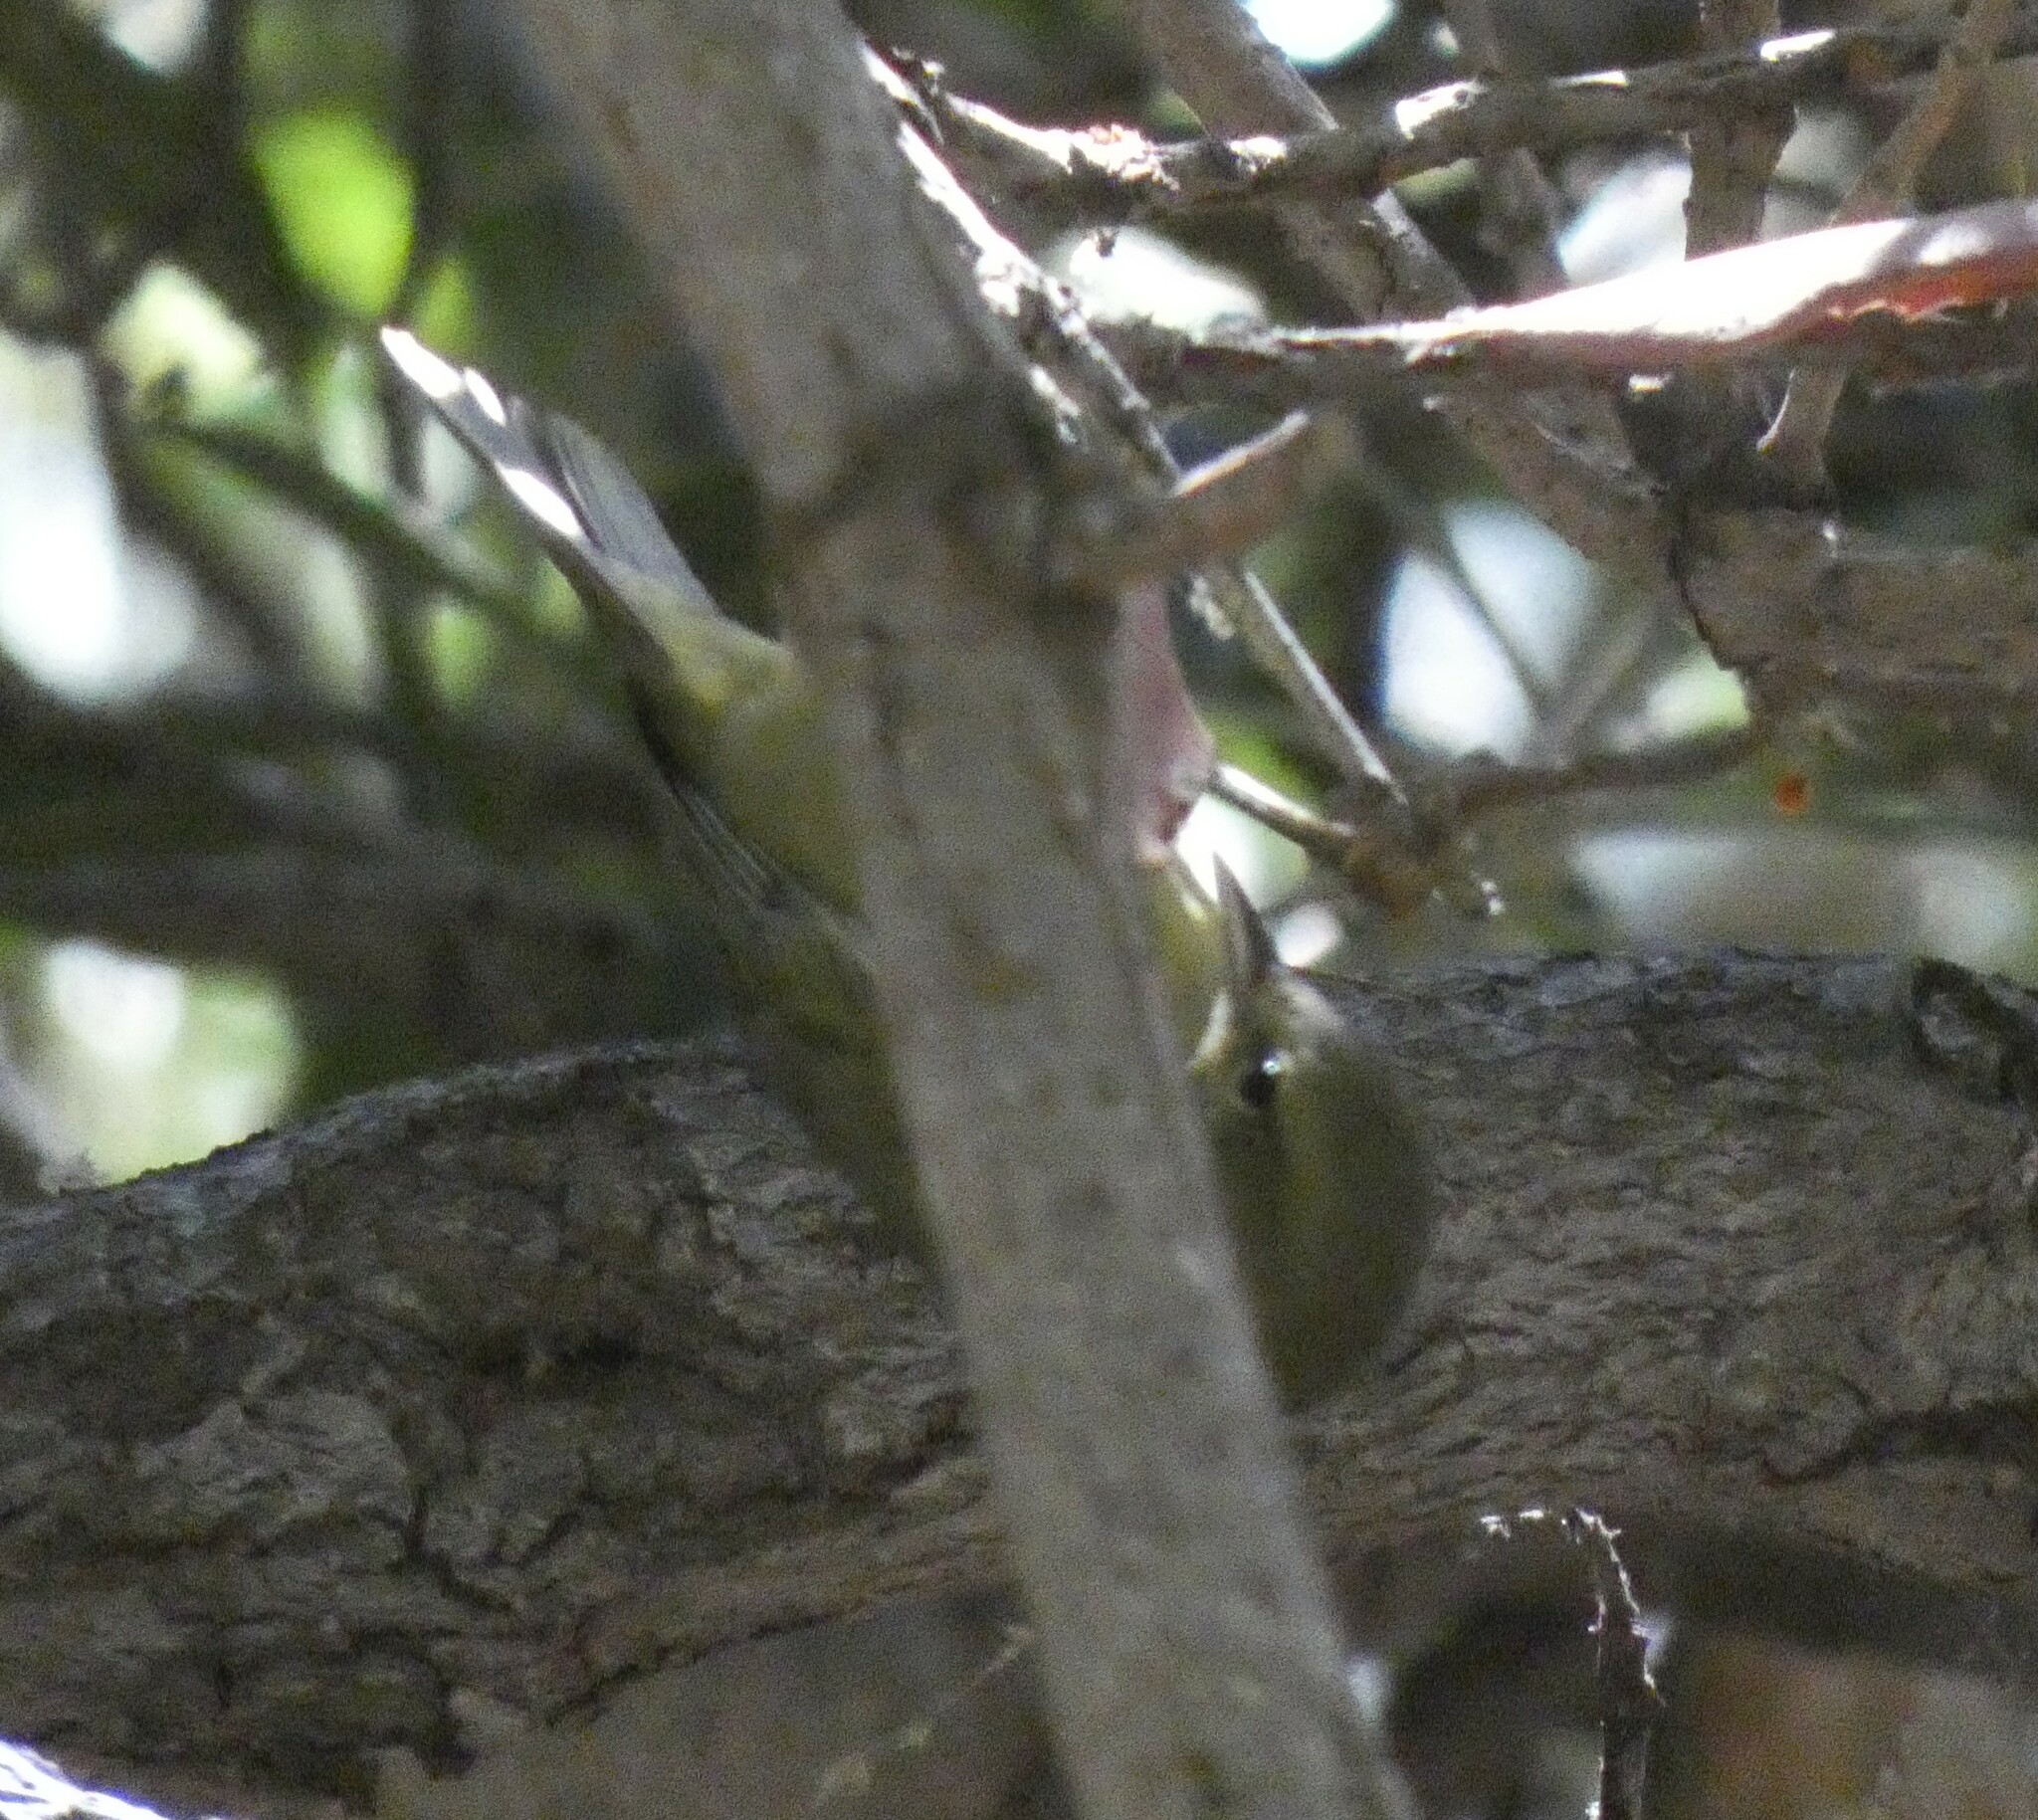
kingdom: Animalia
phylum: Chordata
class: Aves
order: Passeriformes
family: Parulidae
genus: Leiothlypis
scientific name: Leiothlypis celata
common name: Orange-crowned warbler
